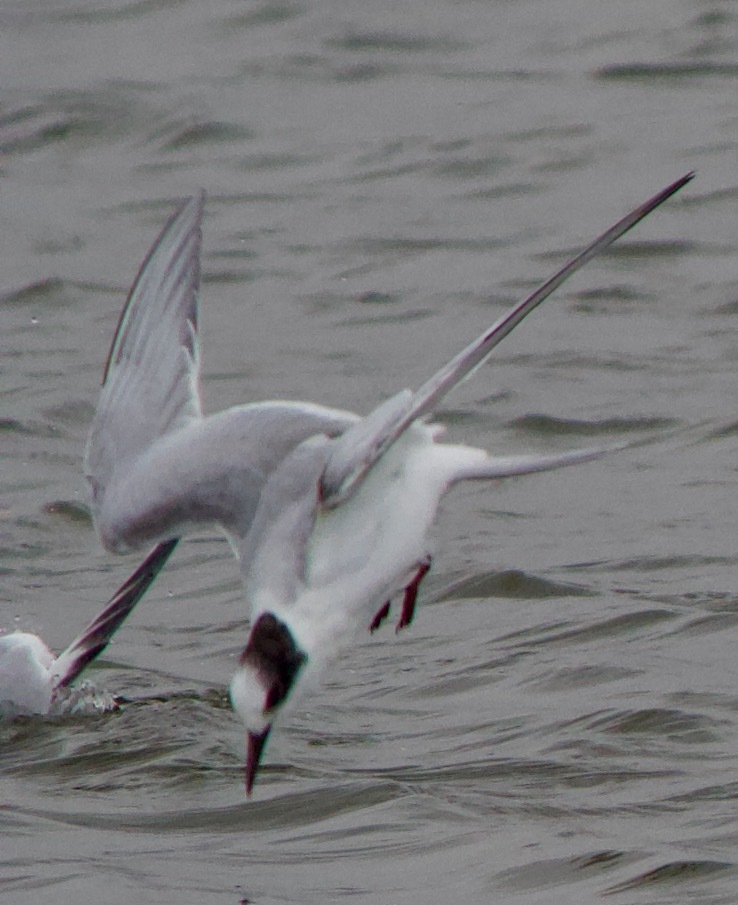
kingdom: Animalia
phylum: Chordata
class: Aves
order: Charadriiformes
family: Laridae
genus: Sterna
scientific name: Sterna hirundinacea
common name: South american tern
